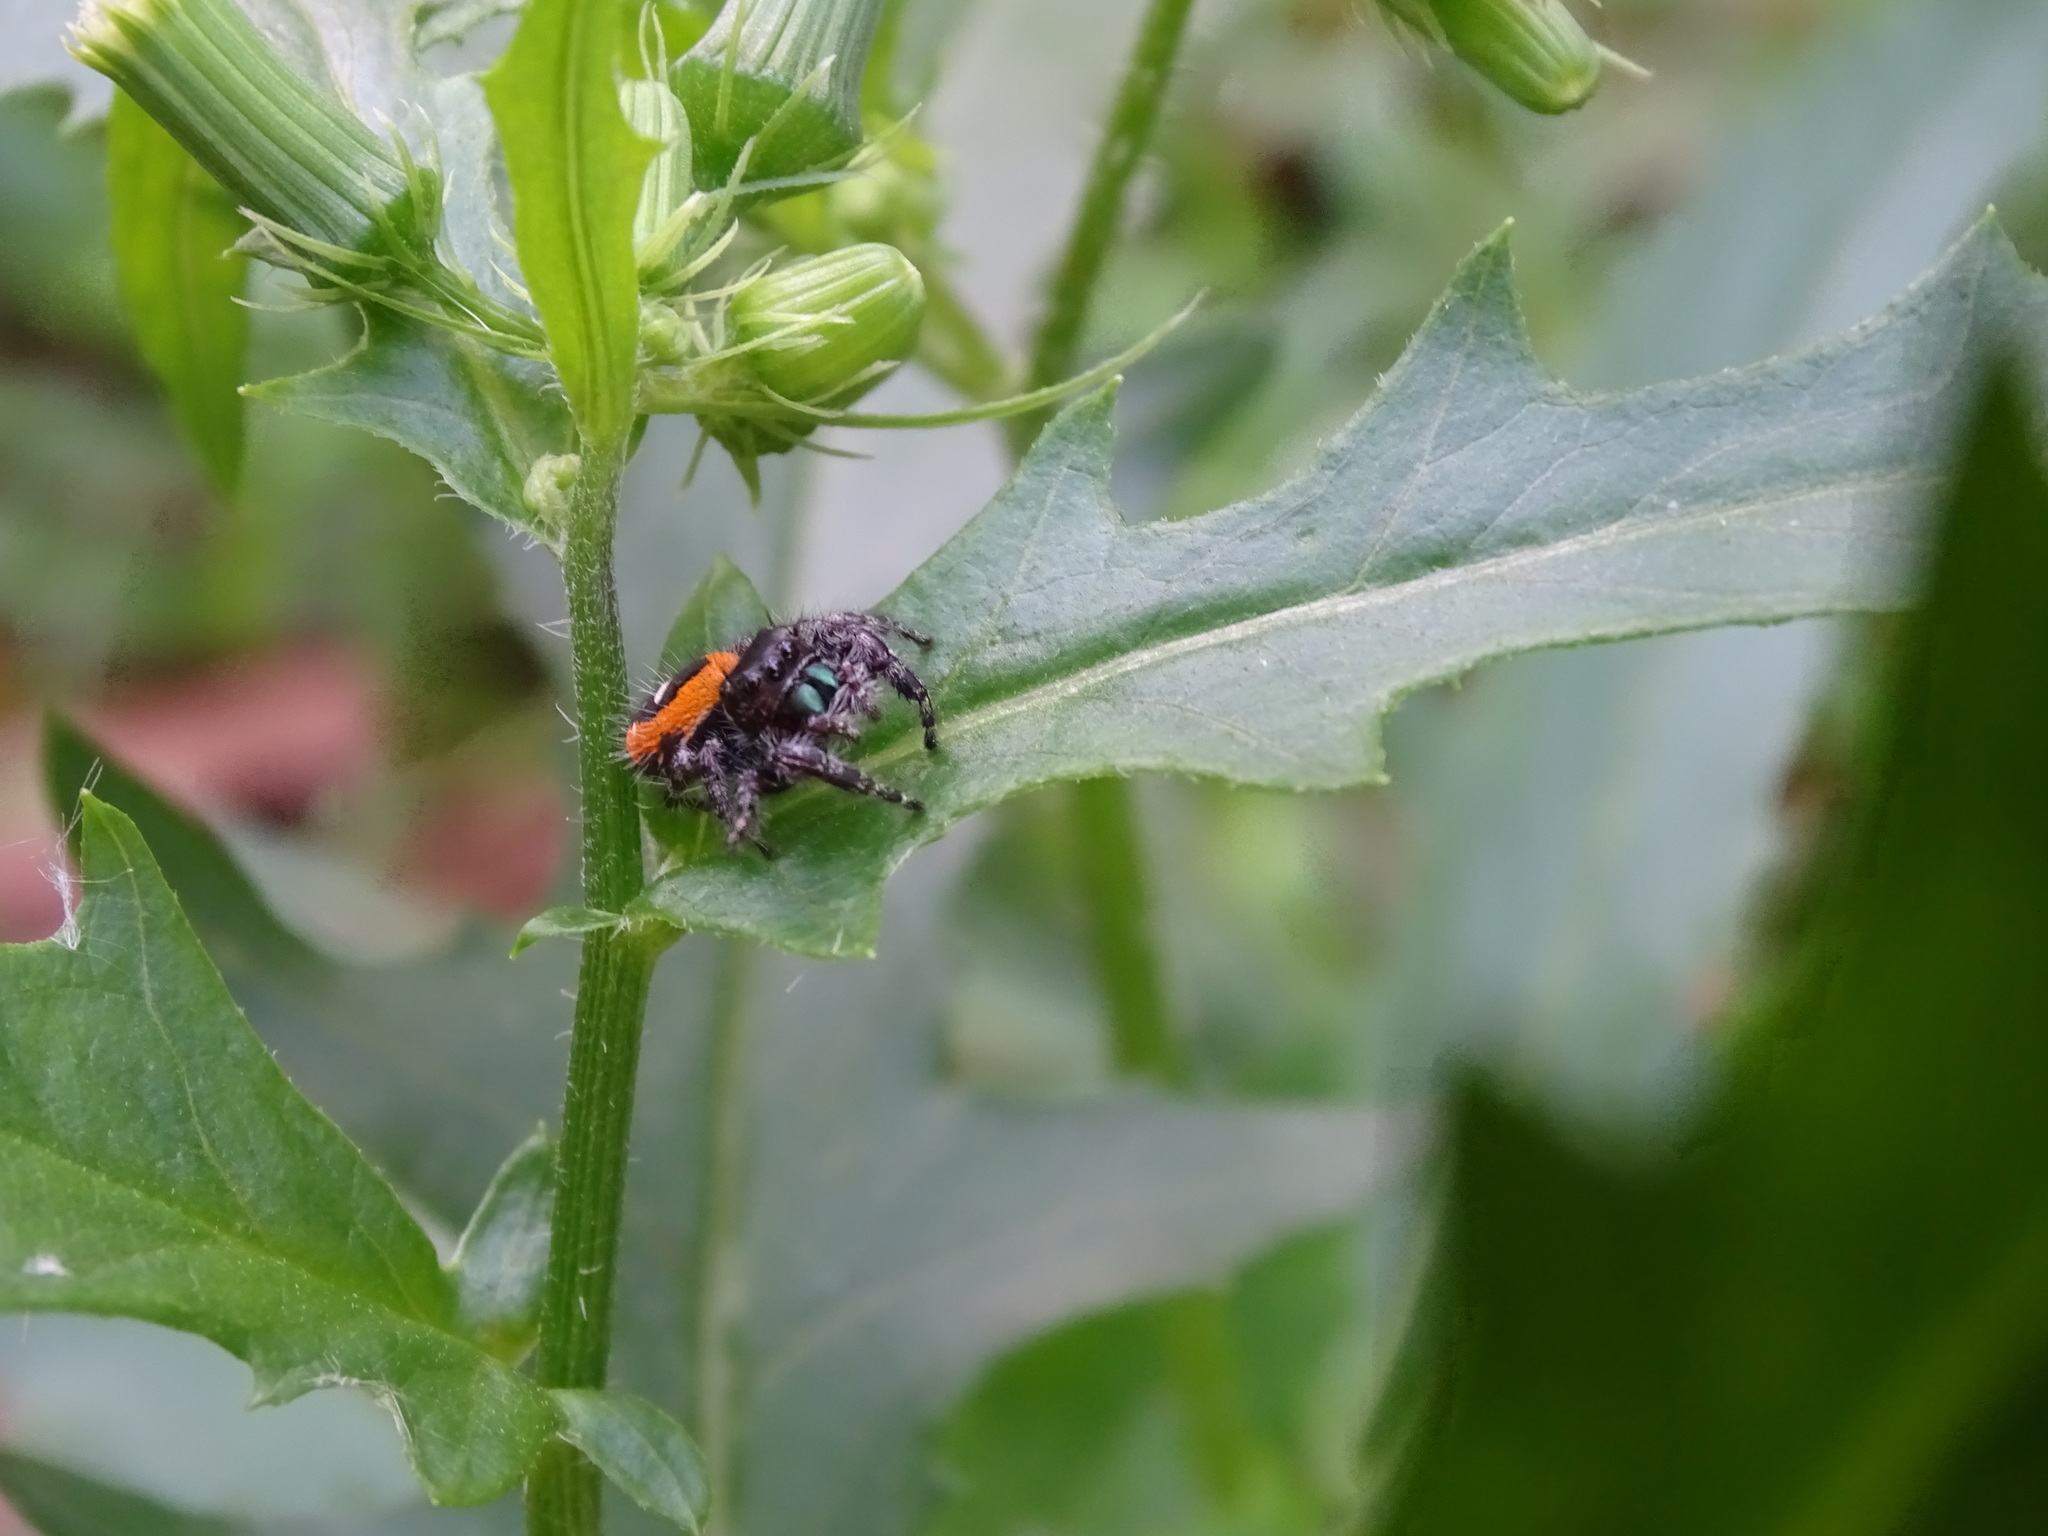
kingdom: Animalia
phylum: Arthropoda
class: Arachnida
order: Araneae
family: Salticidae
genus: Phidippus
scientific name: Phidippus princeps
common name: Grayish jumping spider
